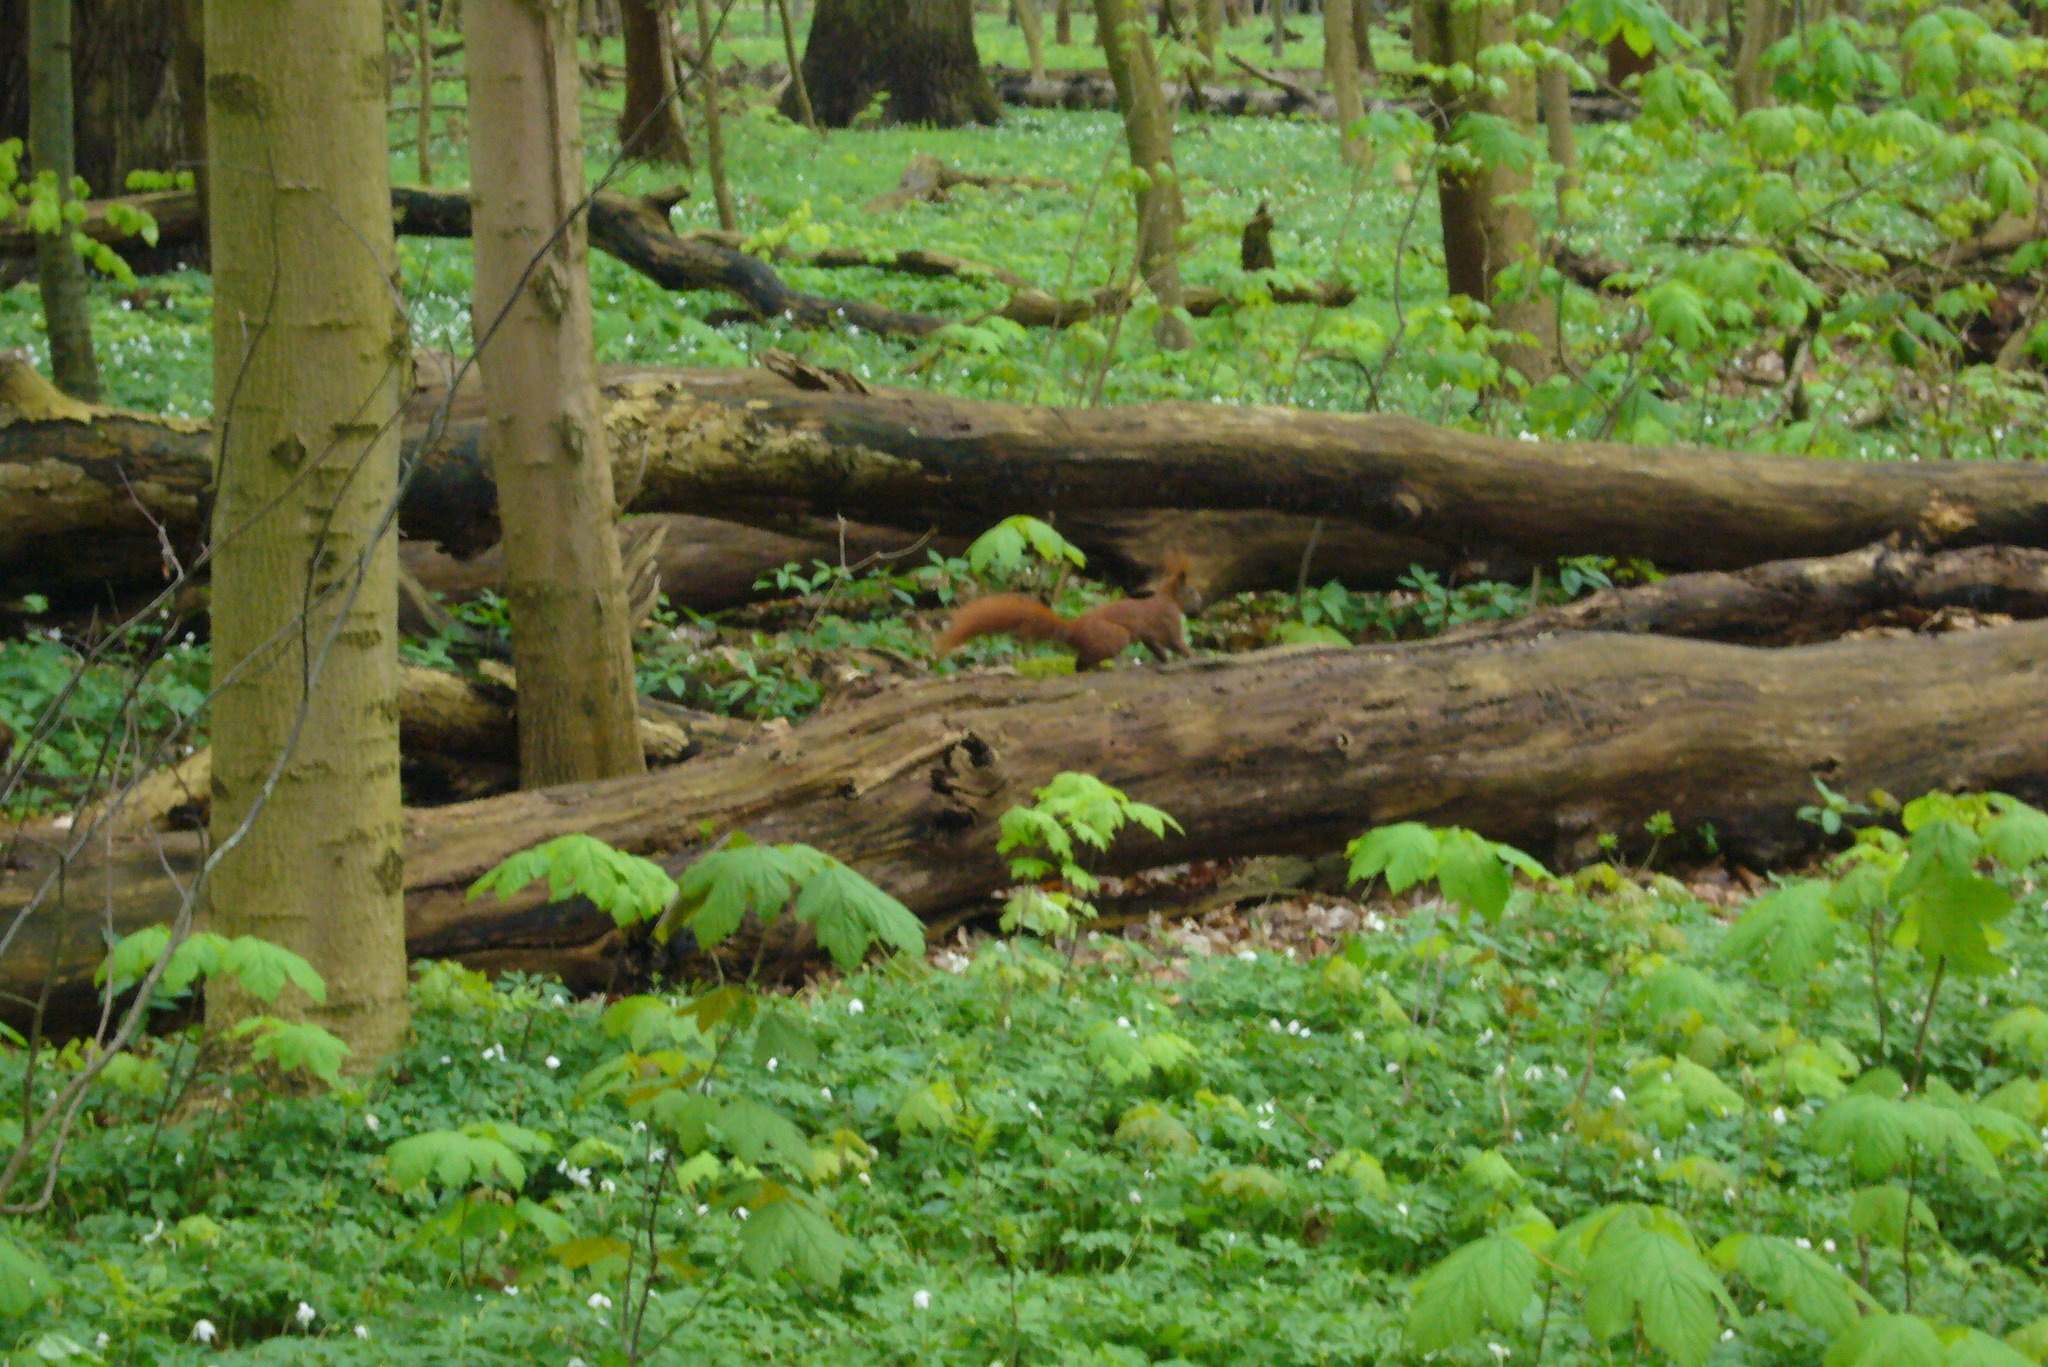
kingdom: Animalia
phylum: Chordata
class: Mammalia
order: Rodentia
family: Sciuridae
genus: Sciurus
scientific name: Sciurus vulgaris
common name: Eurasian red squirrel
